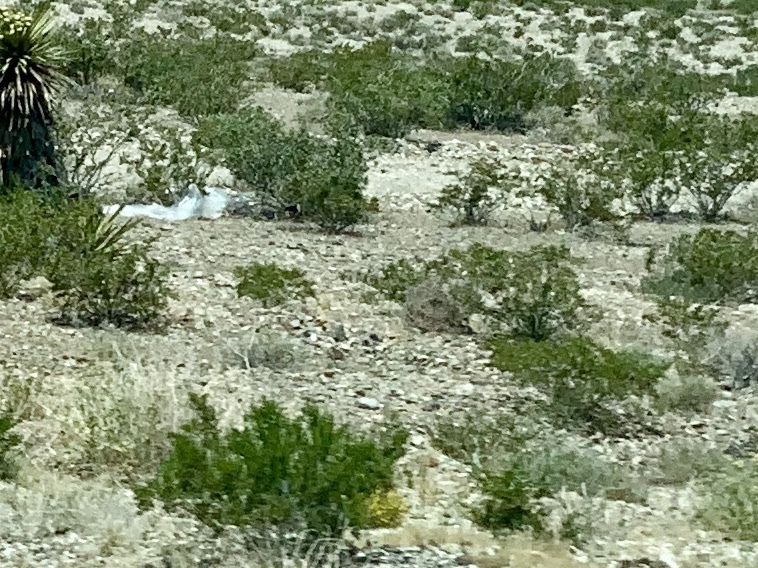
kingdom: Plantae
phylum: Tracheophyta
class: Magnoliopsida
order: Zygophyllales
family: Zygophyllaceae
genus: Larrea
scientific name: Larrea tridentata
